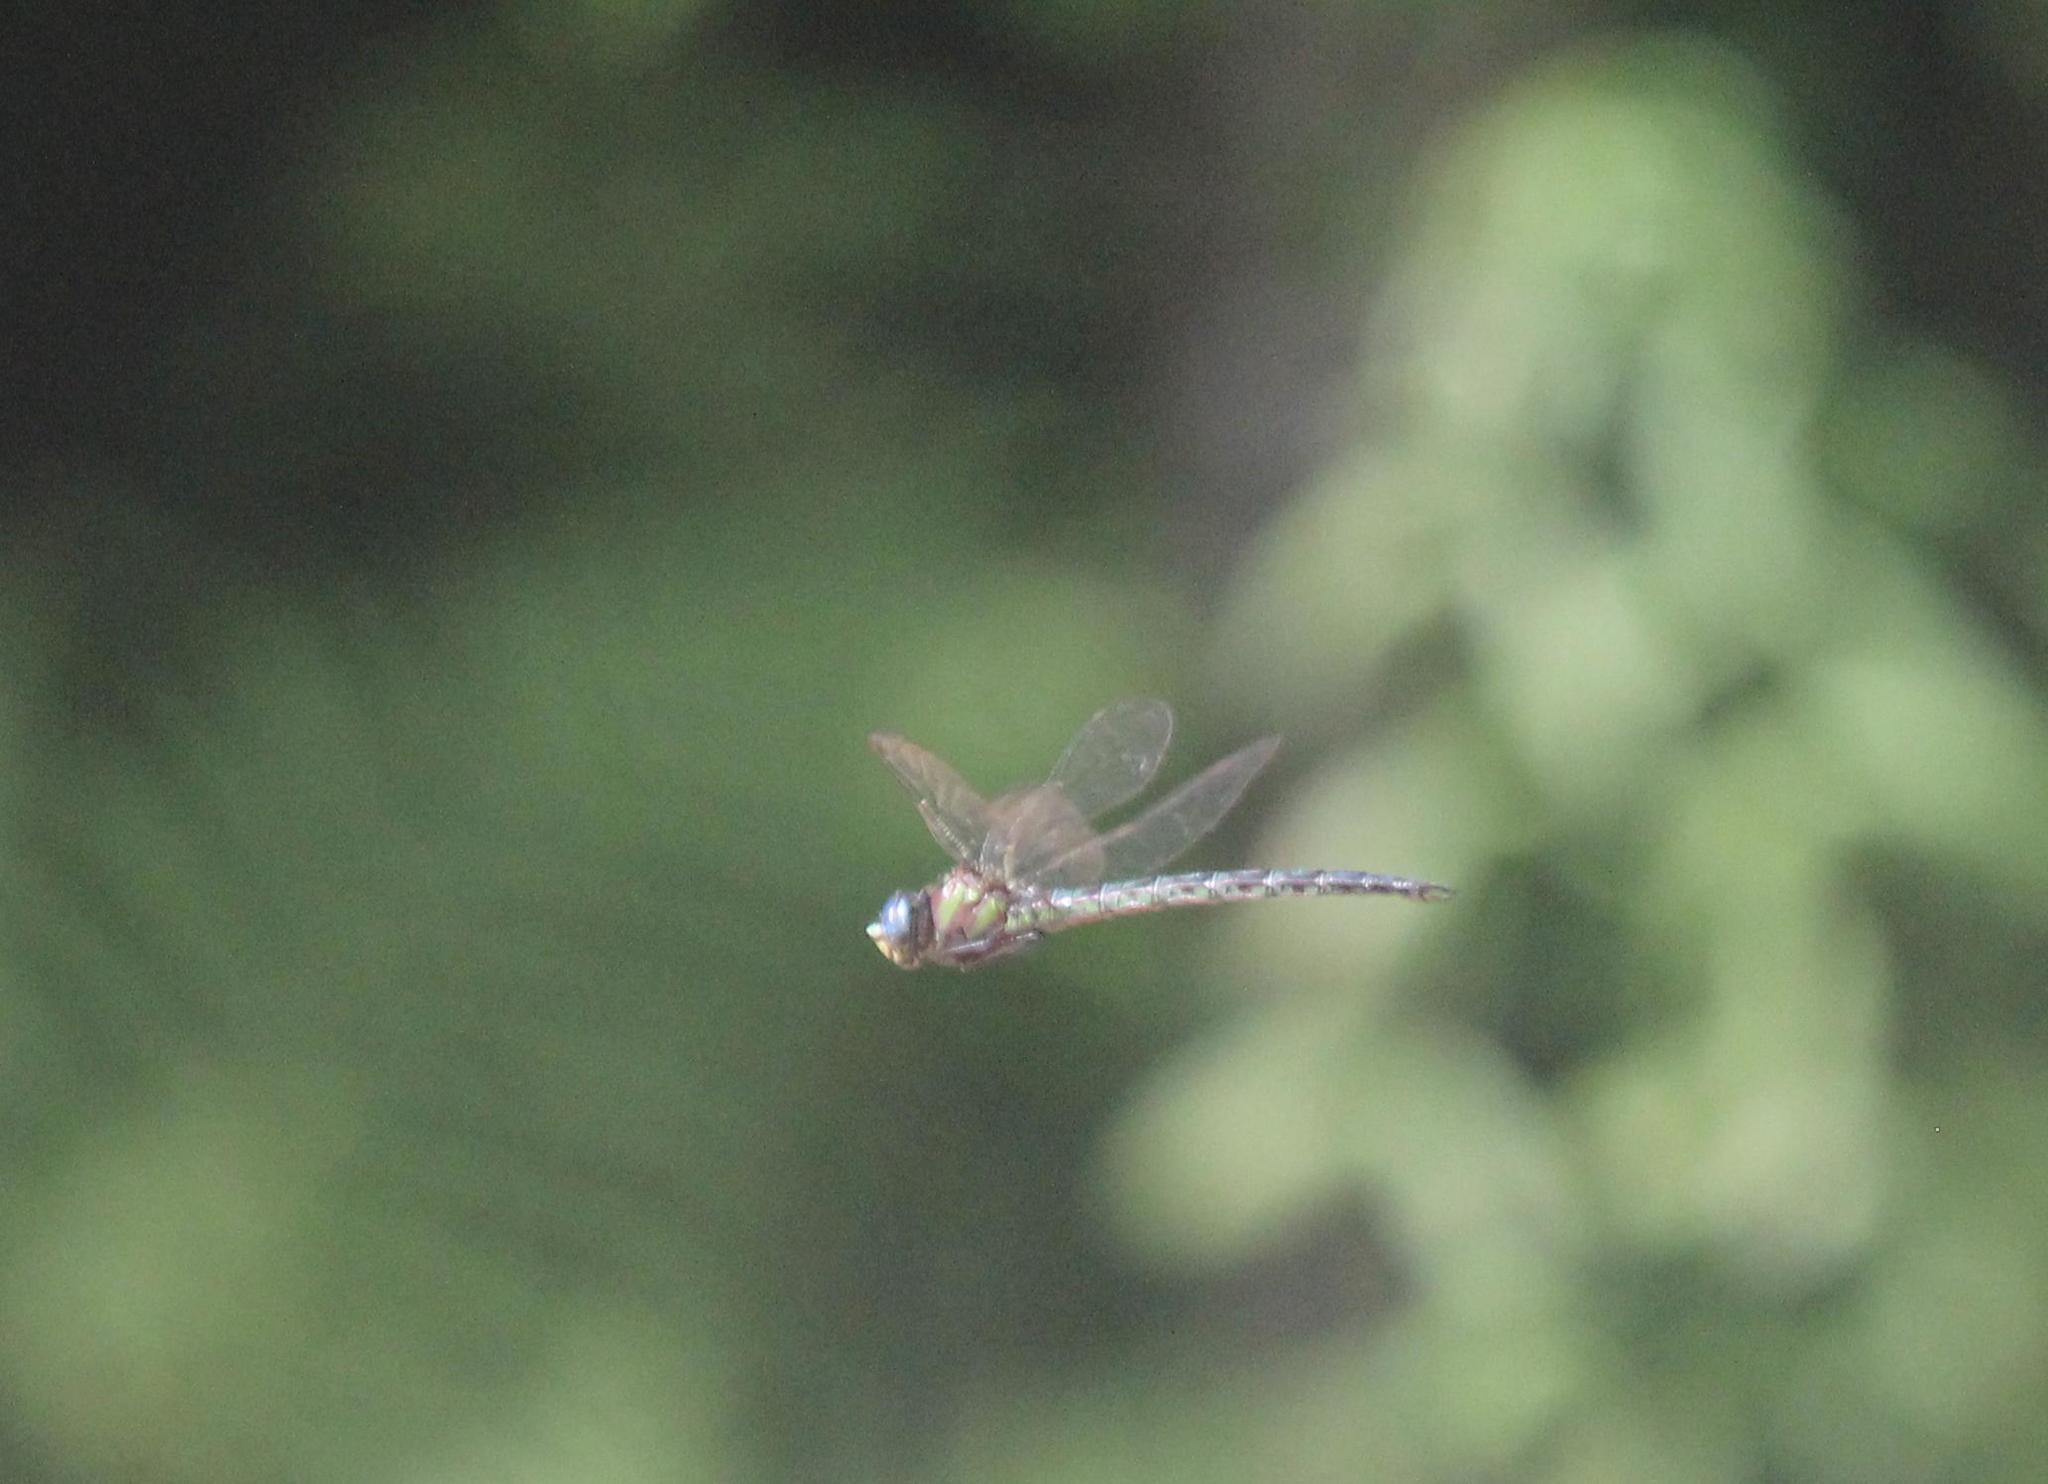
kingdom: Animalia
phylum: Arthropoda
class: Insecta
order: Odonata
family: Aeshnidae
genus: Nasiaeschna
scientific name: Nasiaeschna pentacantha
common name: Cyrano darner
